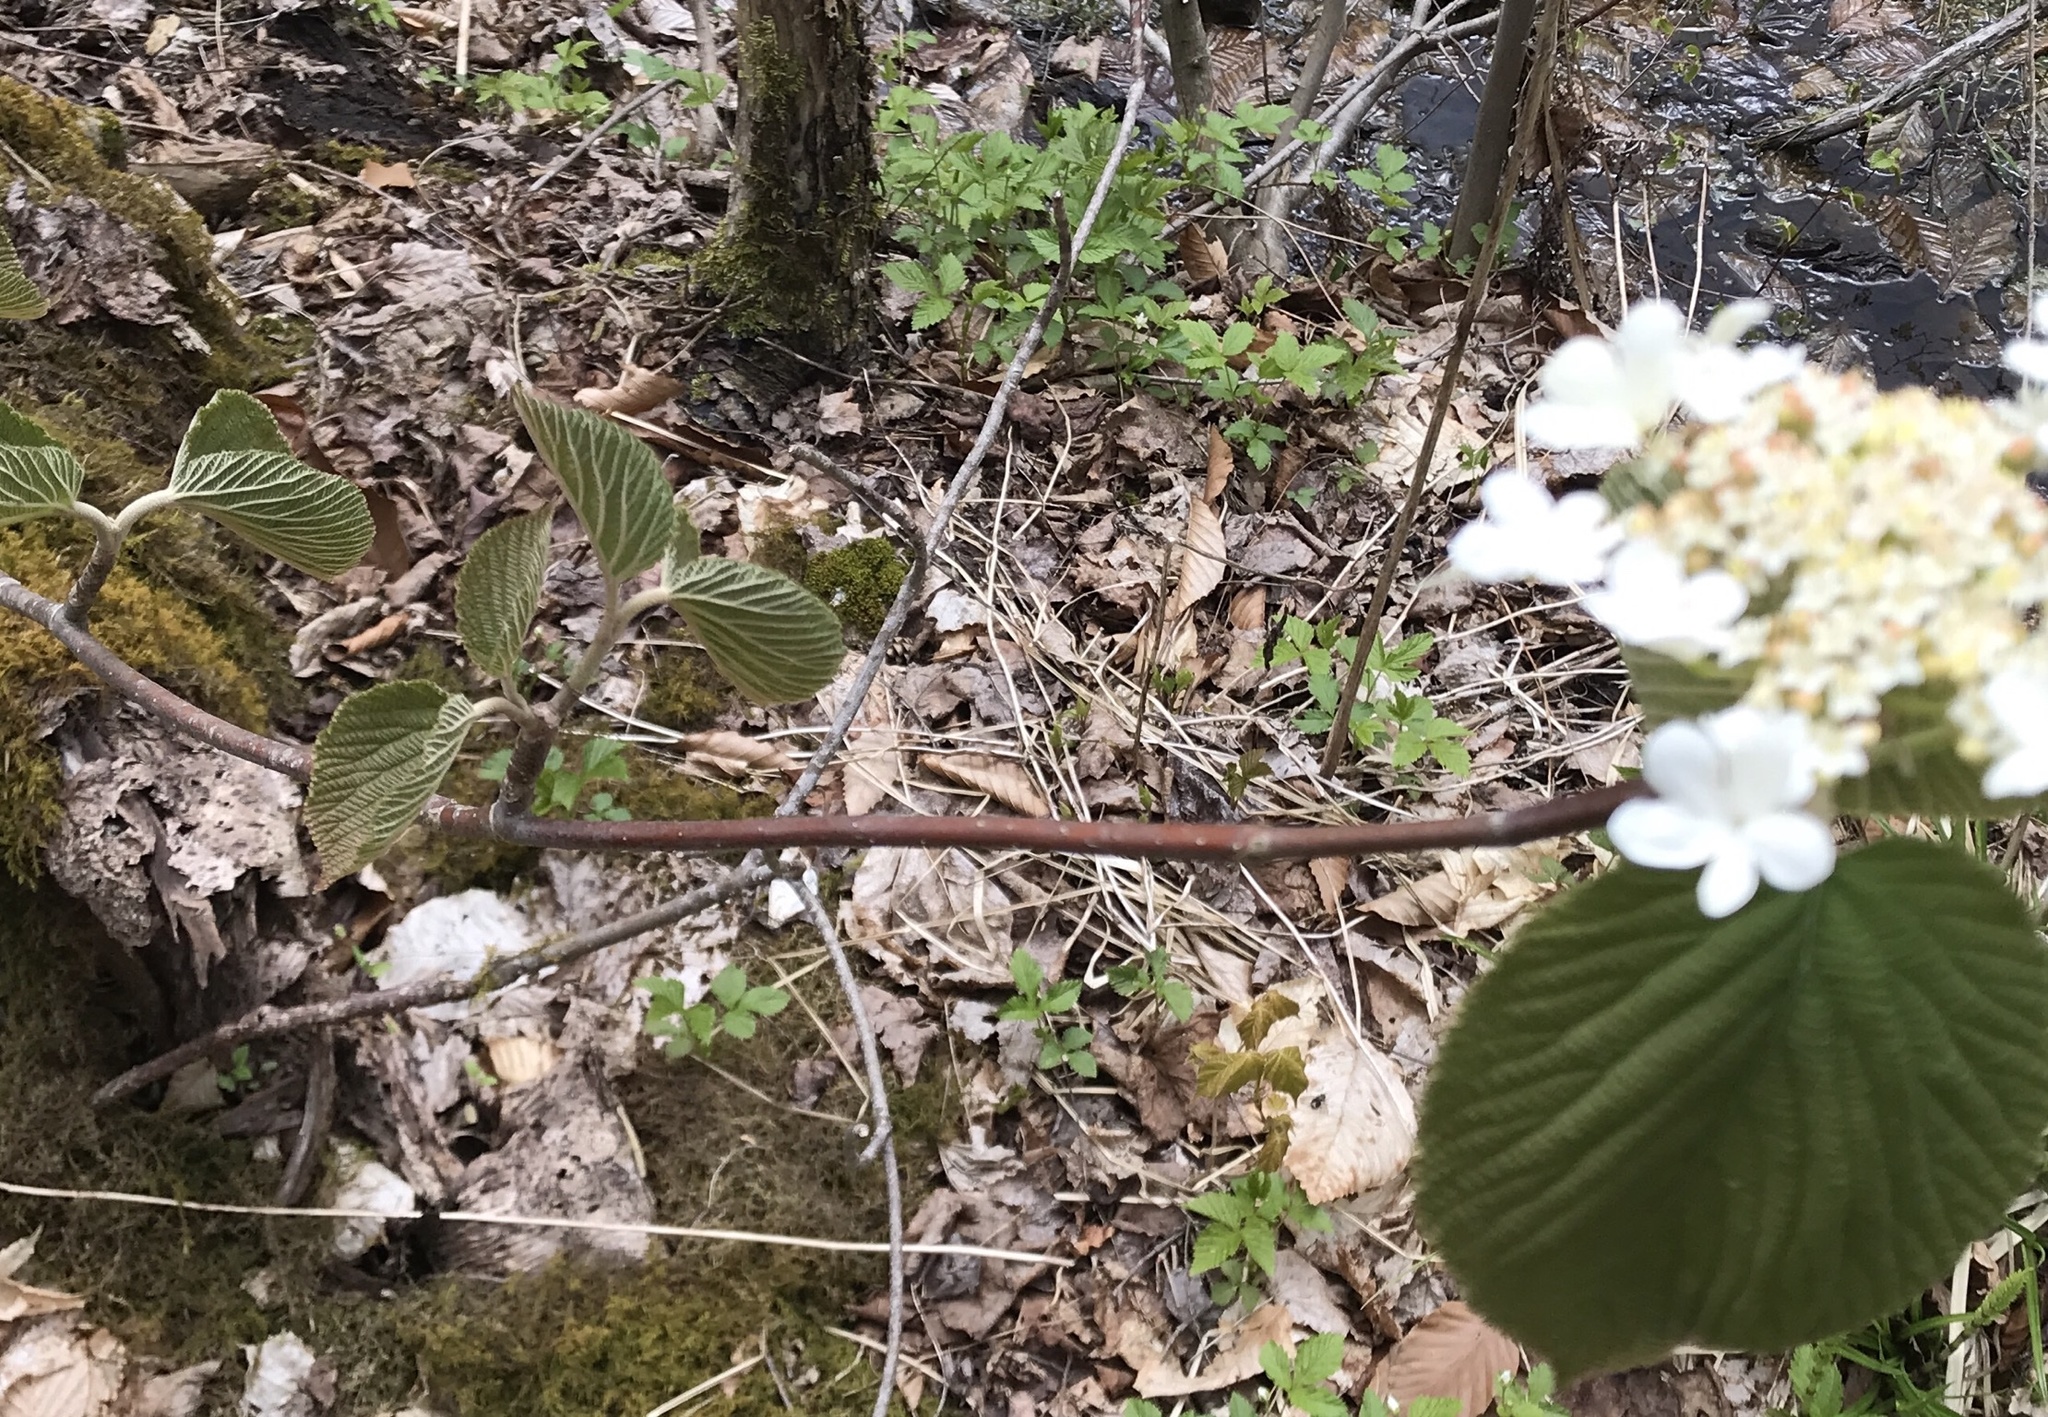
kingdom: Plantae
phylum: Tracheophyta
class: Magnoliopsida
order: Dipsacales
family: Viburnaceae
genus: Viburnum
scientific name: Viburnum lantanoides
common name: Hobblebush
